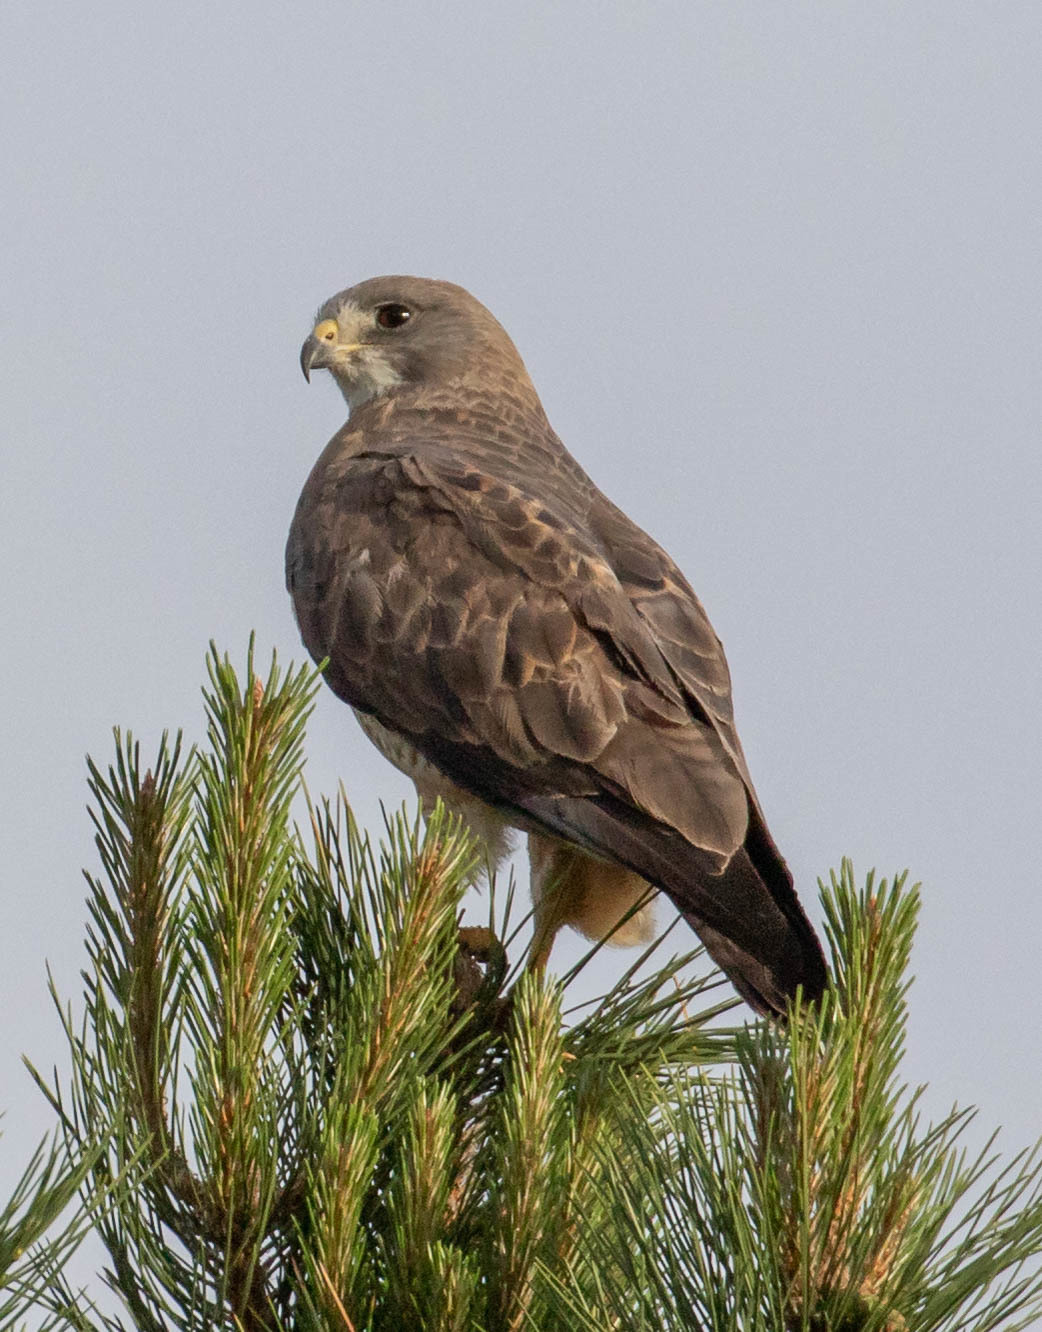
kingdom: Animalia
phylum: Chordata
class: Aves
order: Accipitriformes
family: Accipitridae
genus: Buteo
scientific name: Buteo swainsoni
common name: Swainson's hawk
